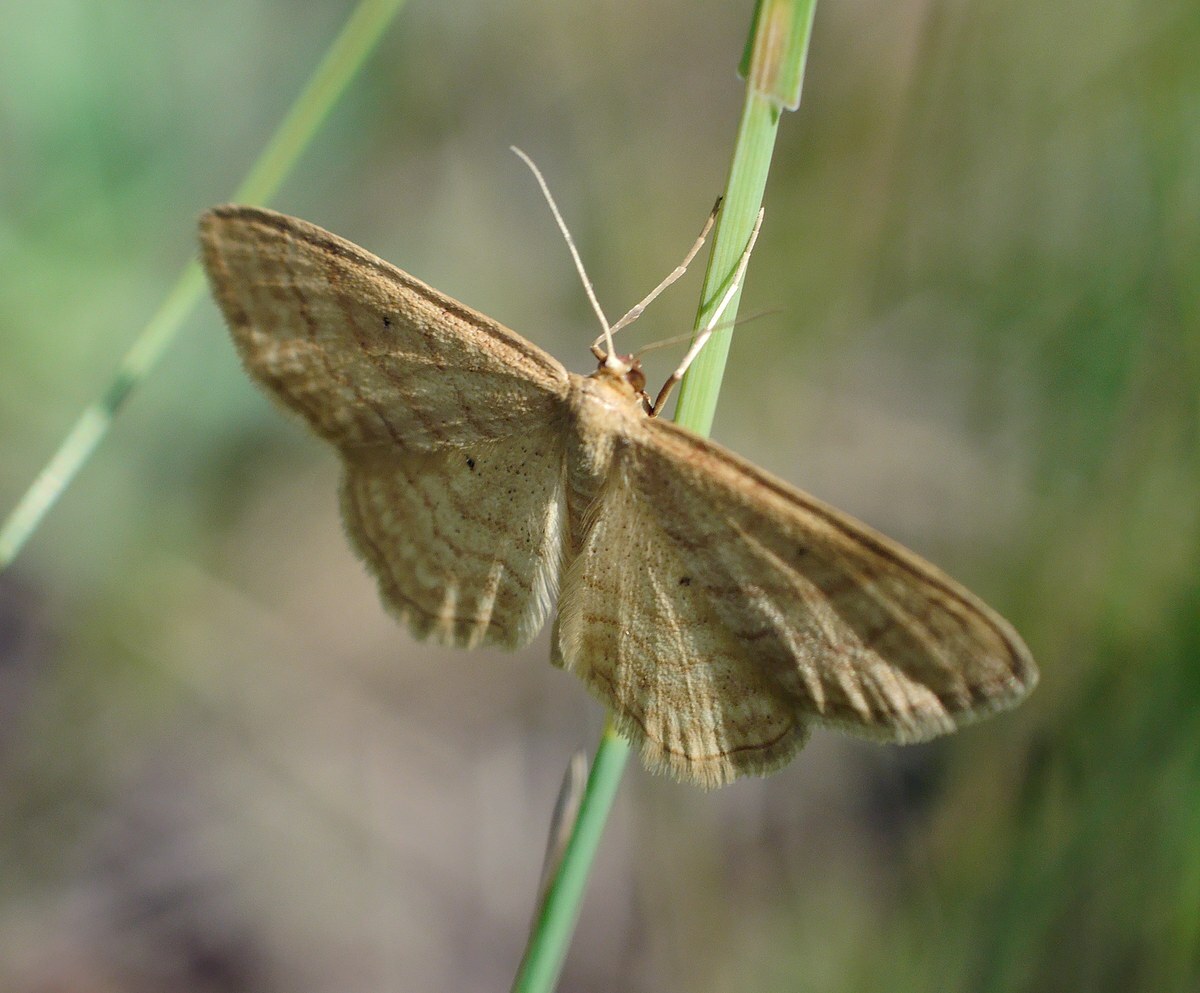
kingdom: Animalia
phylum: Arthropoda
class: Insecta
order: Lepidoptera
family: Geometridae
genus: Idaea
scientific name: Idaea rufaria
